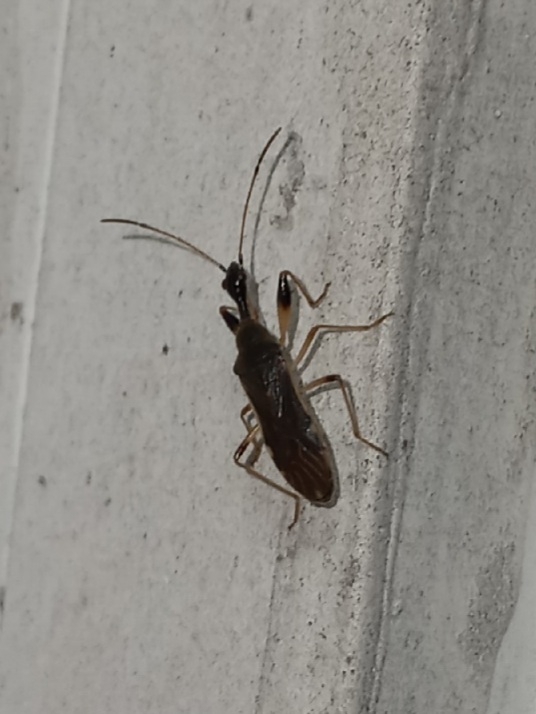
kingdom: Animalia
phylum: Arthropoda
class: Insecta
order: Hemiptera
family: Rhyparochromidae
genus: Myodocha
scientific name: Myodocha serripes
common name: Long-necked seed bug
